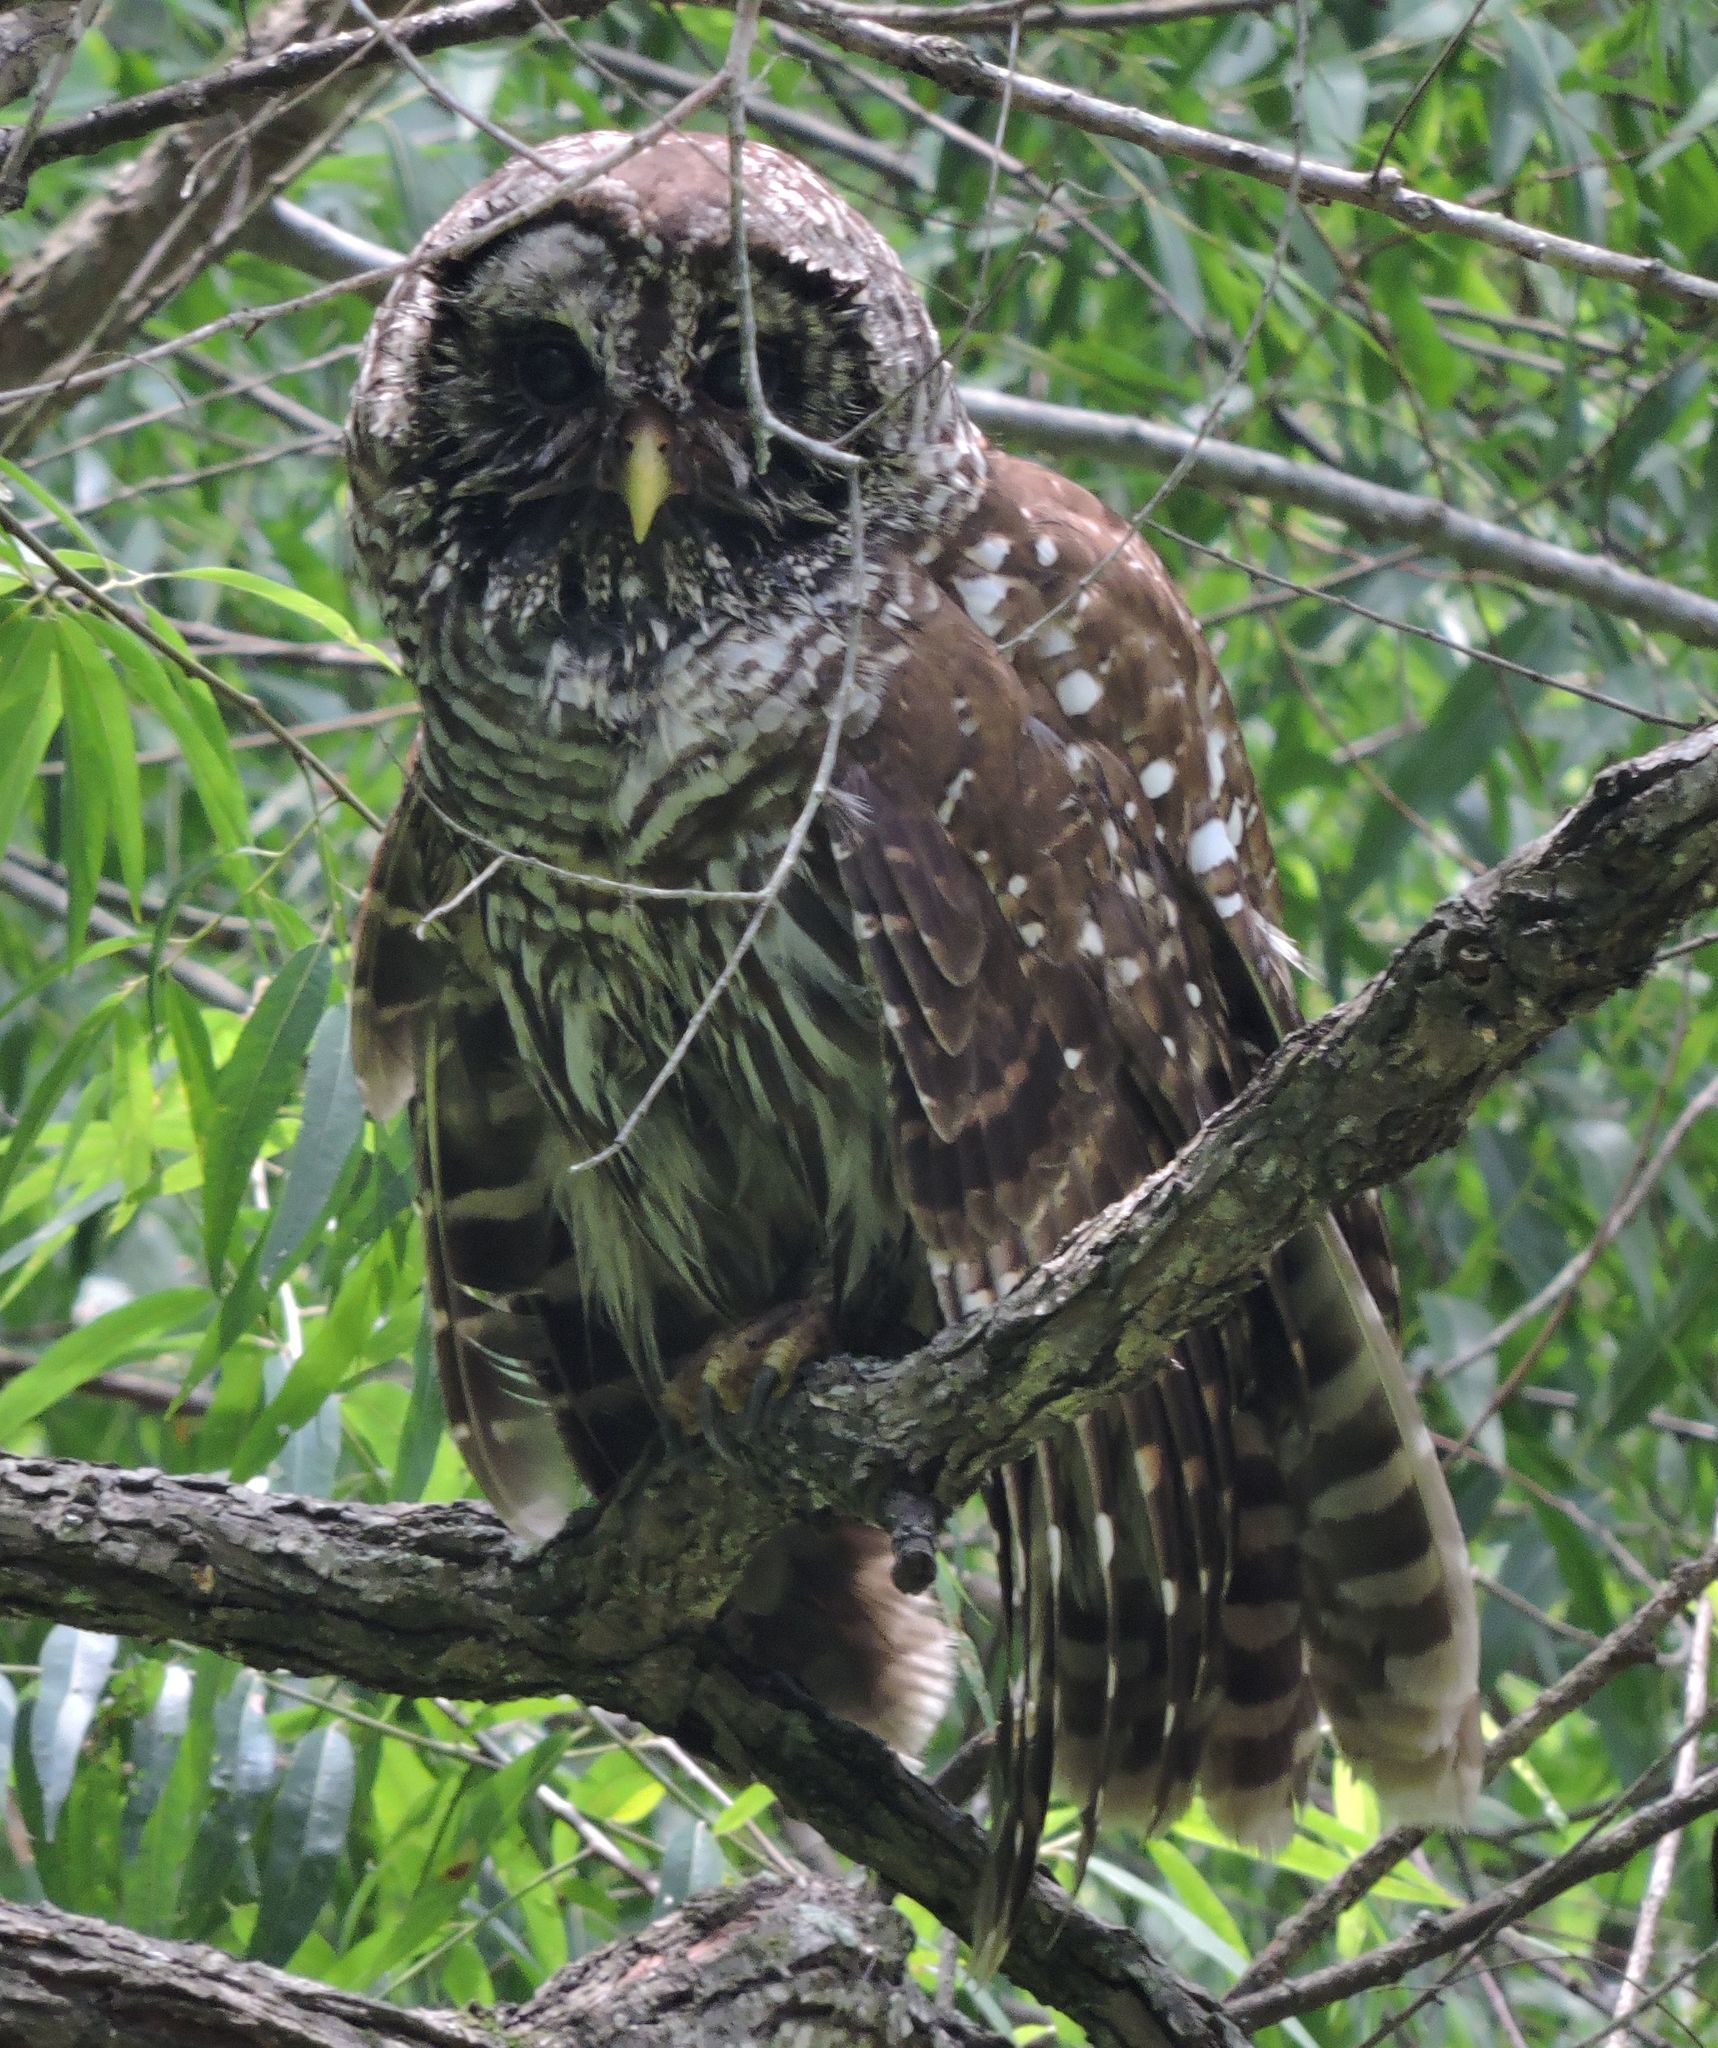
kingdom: Animalia
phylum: Chordata
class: Aves
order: Strigiformes
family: Strigidae
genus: Strix
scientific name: Strix varia
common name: Barred owl
